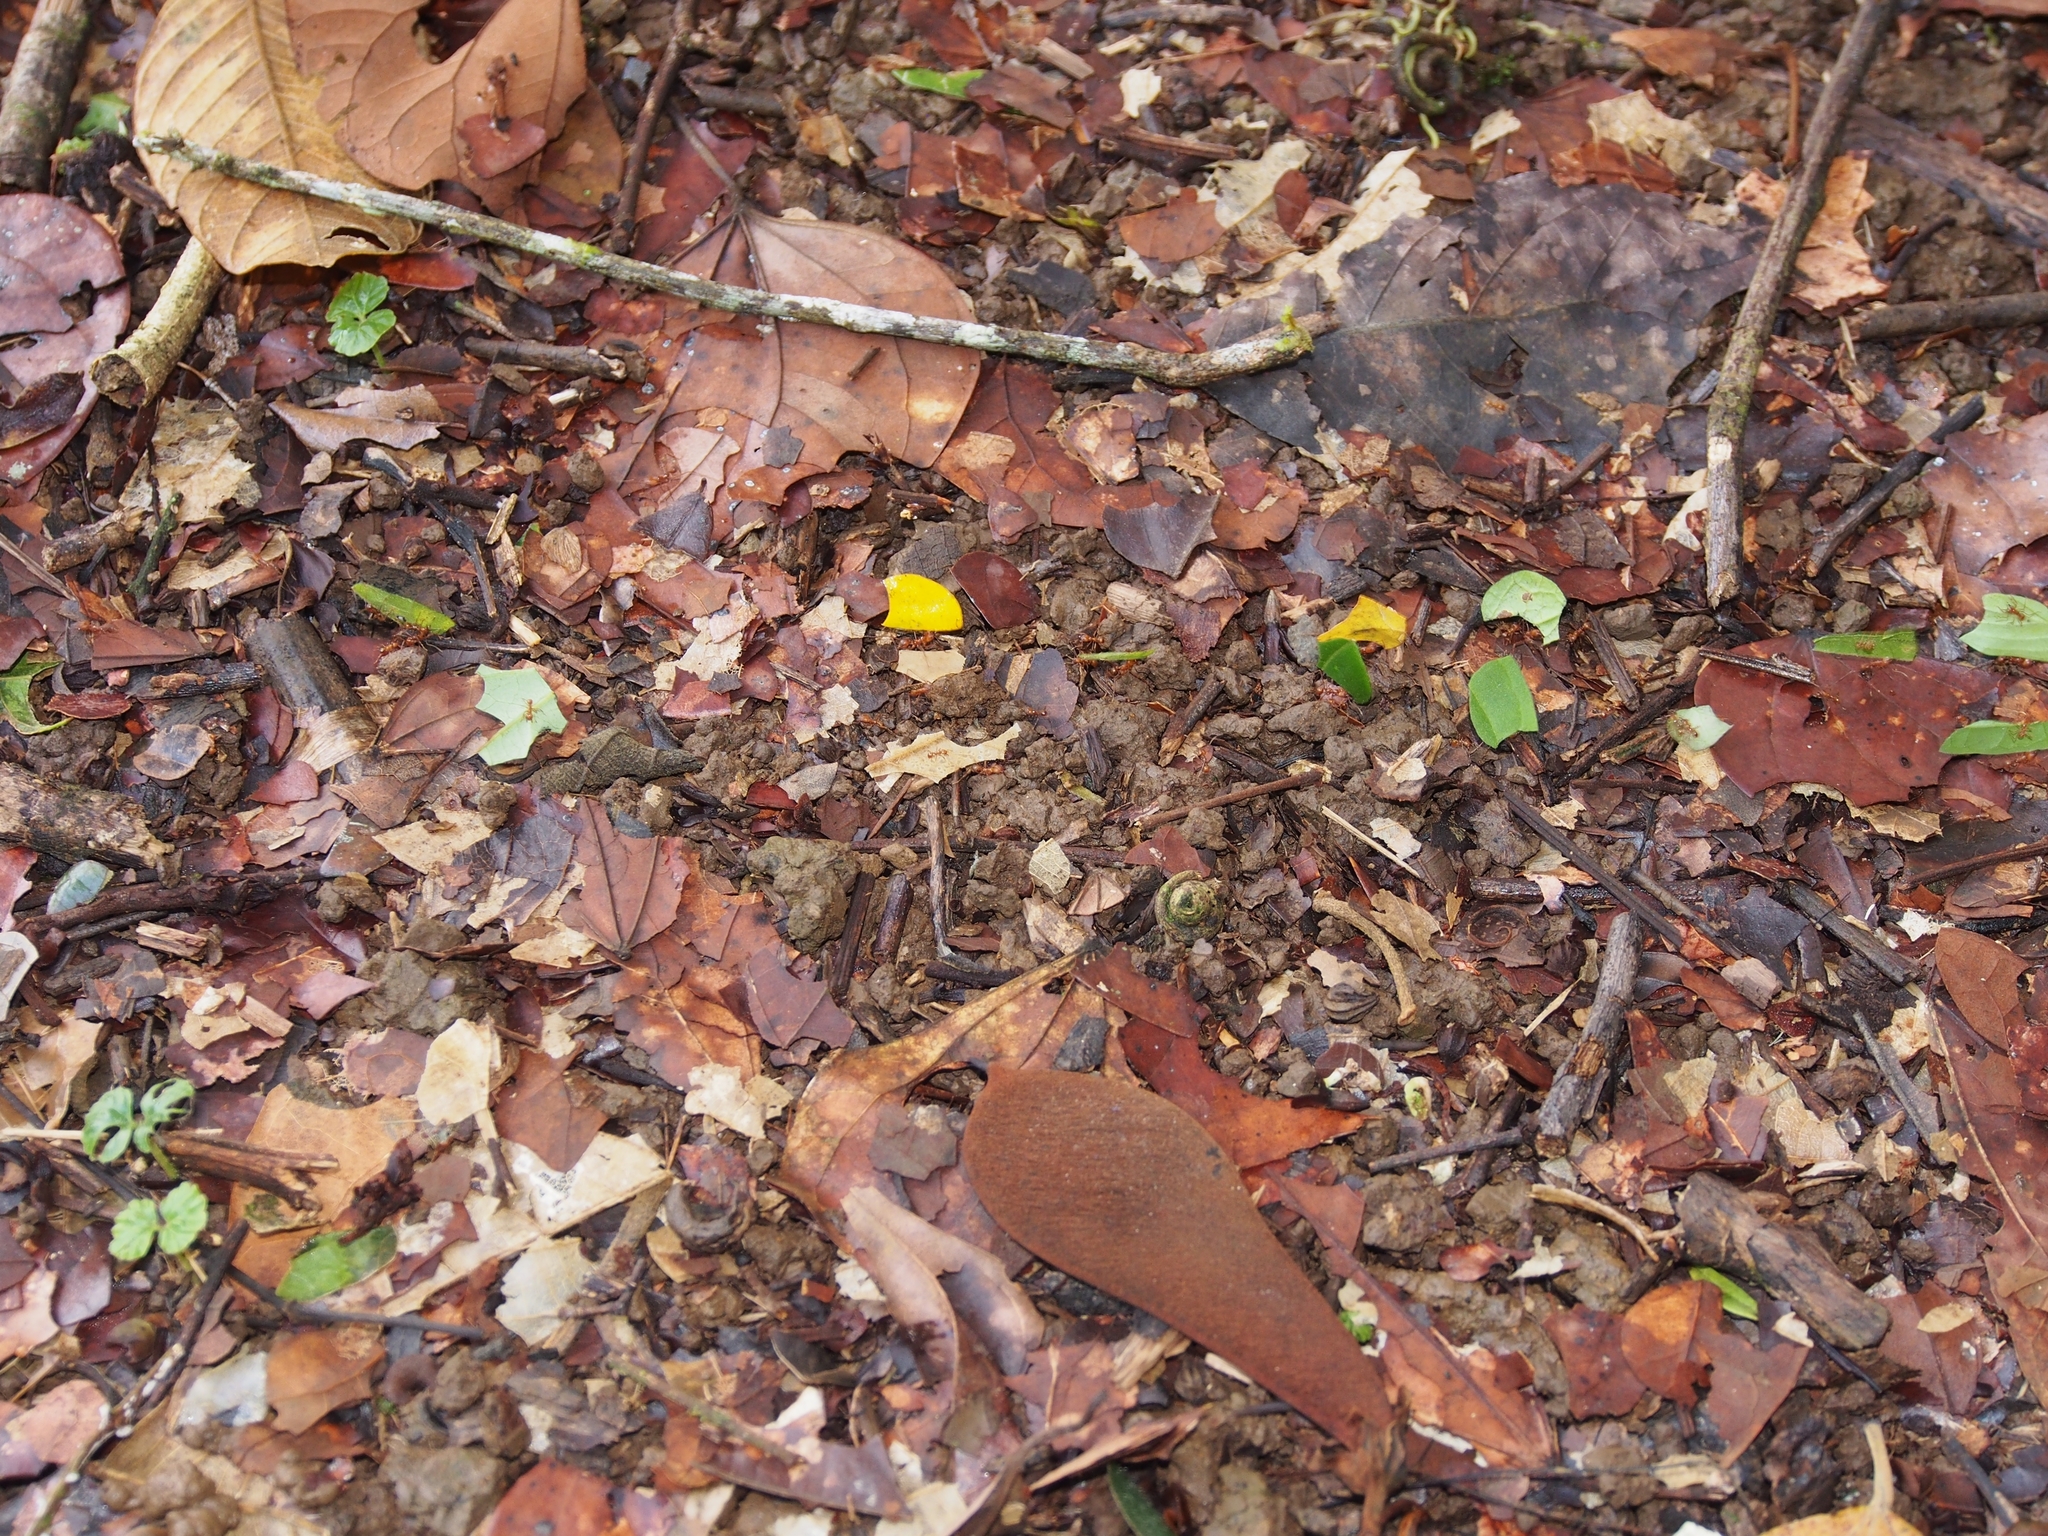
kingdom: Animalia
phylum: Arthropoda
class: Insecta
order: Hymenoptera
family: Formicidae
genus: Atta
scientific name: Atta cephalotes
